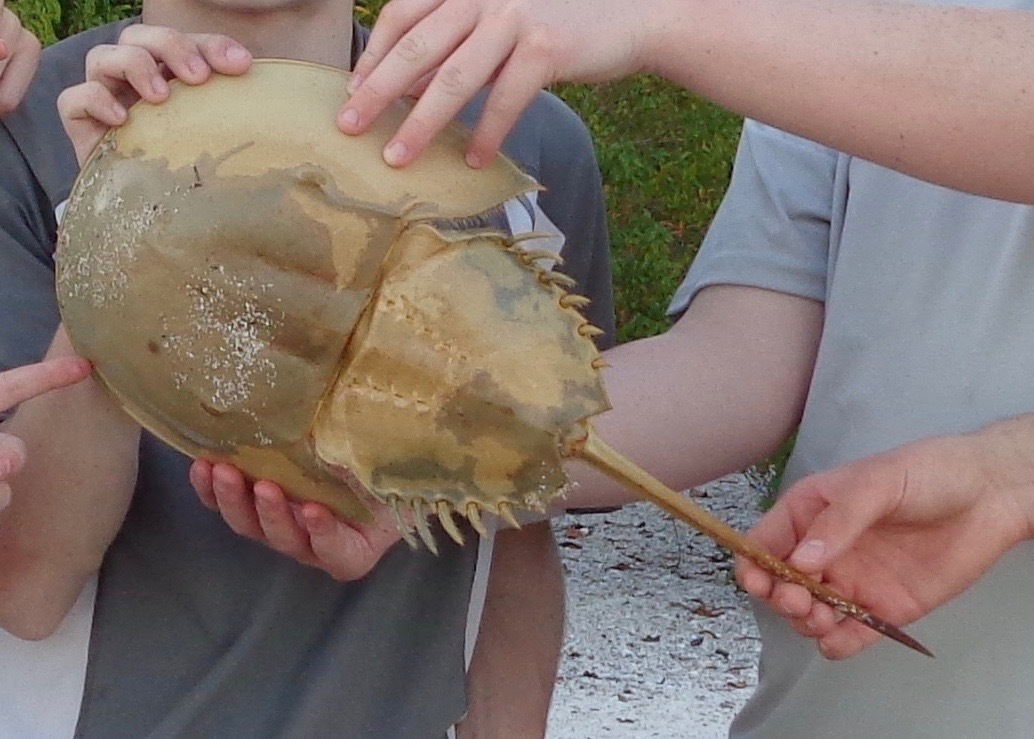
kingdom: Animalia
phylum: Arthropoda
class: Merostomata
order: Xiphosurida
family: Limulidae
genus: Limulus
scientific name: Limulus polyphemus
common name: Horseshoe crab
